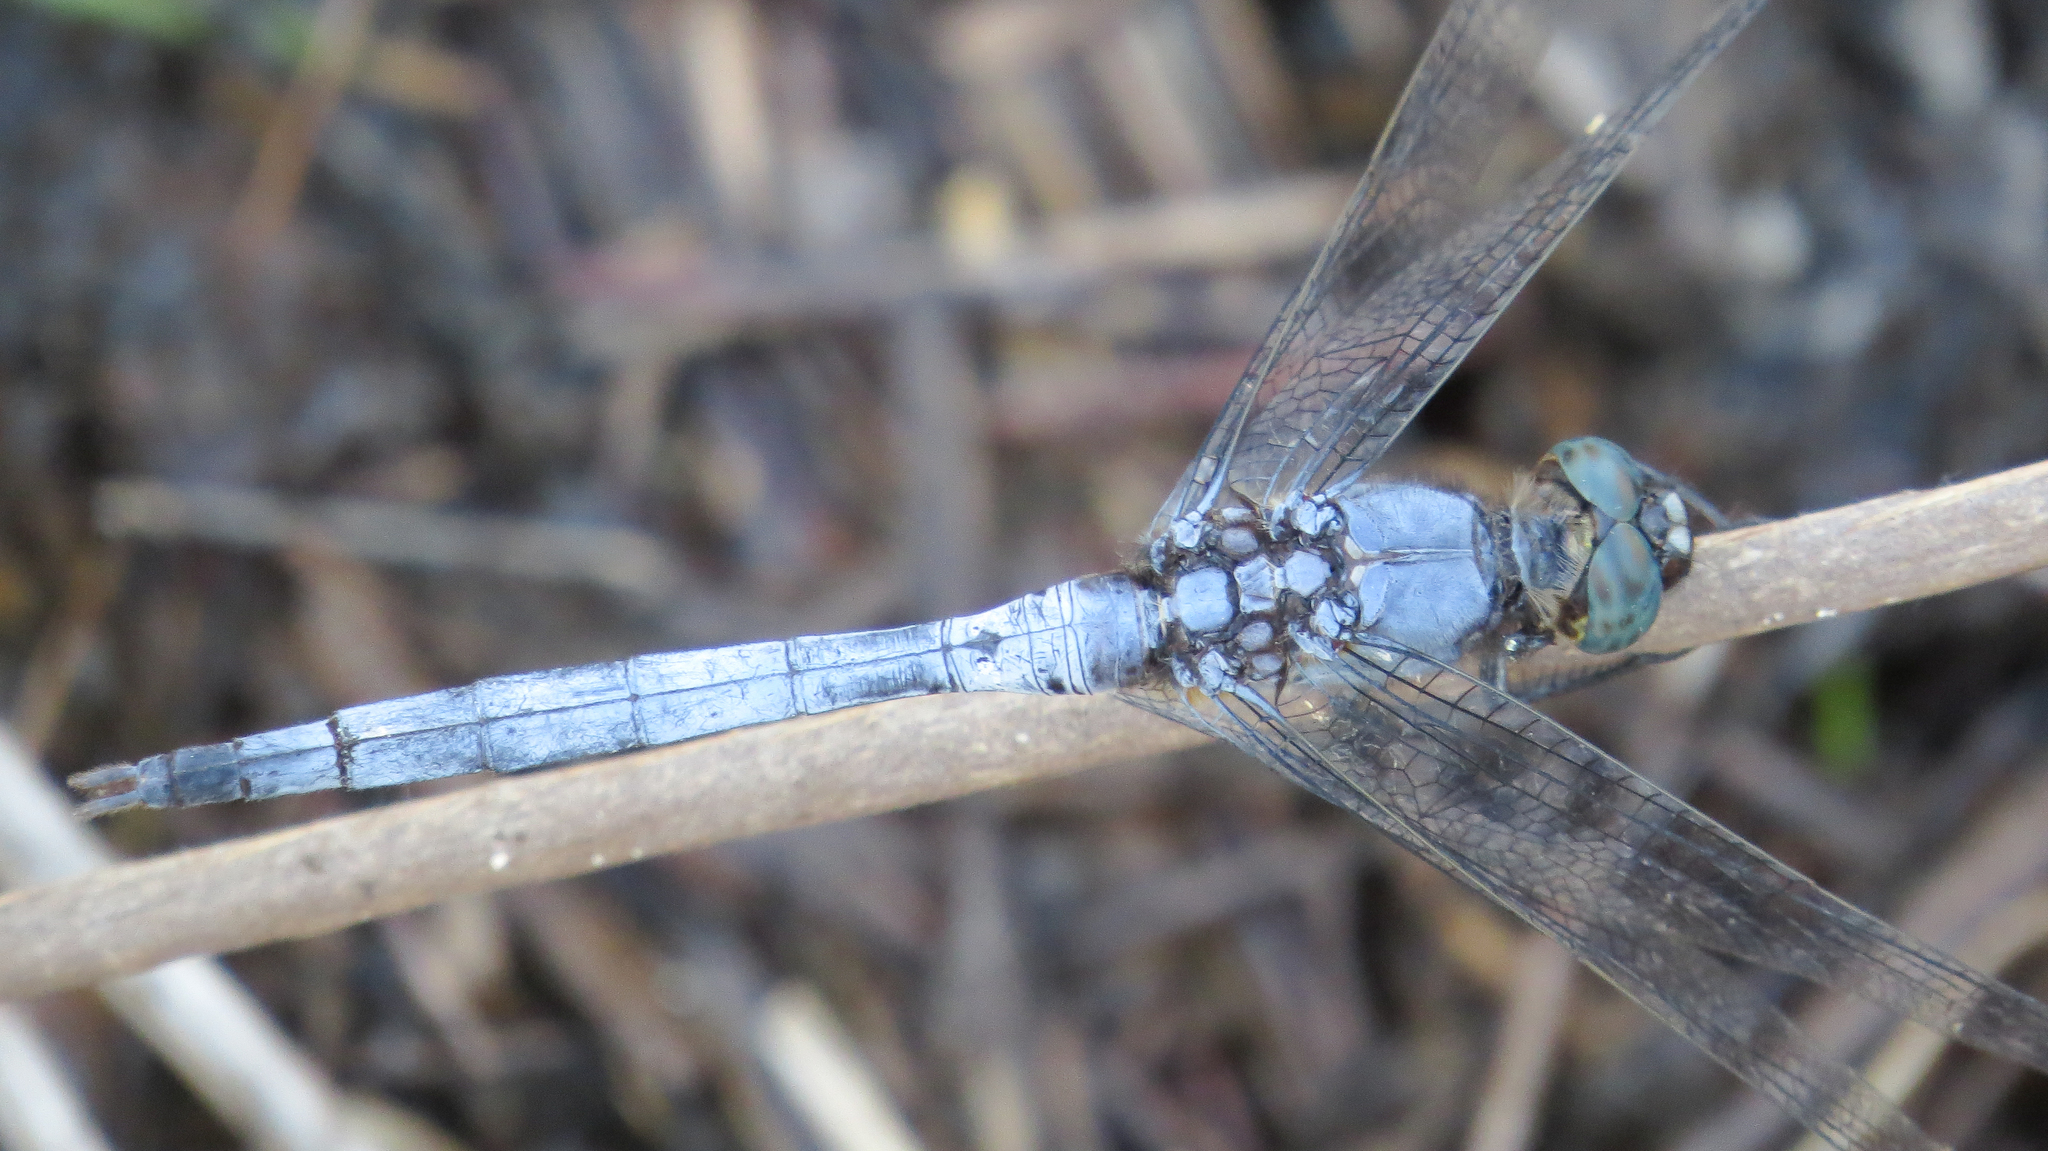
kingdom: Animalia
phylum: Arthropoda
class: Insecta
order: Odonata
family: Libellulidae
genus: Orthetrum
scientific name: Orthetrum boumiera
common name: Brownwater skimmer
